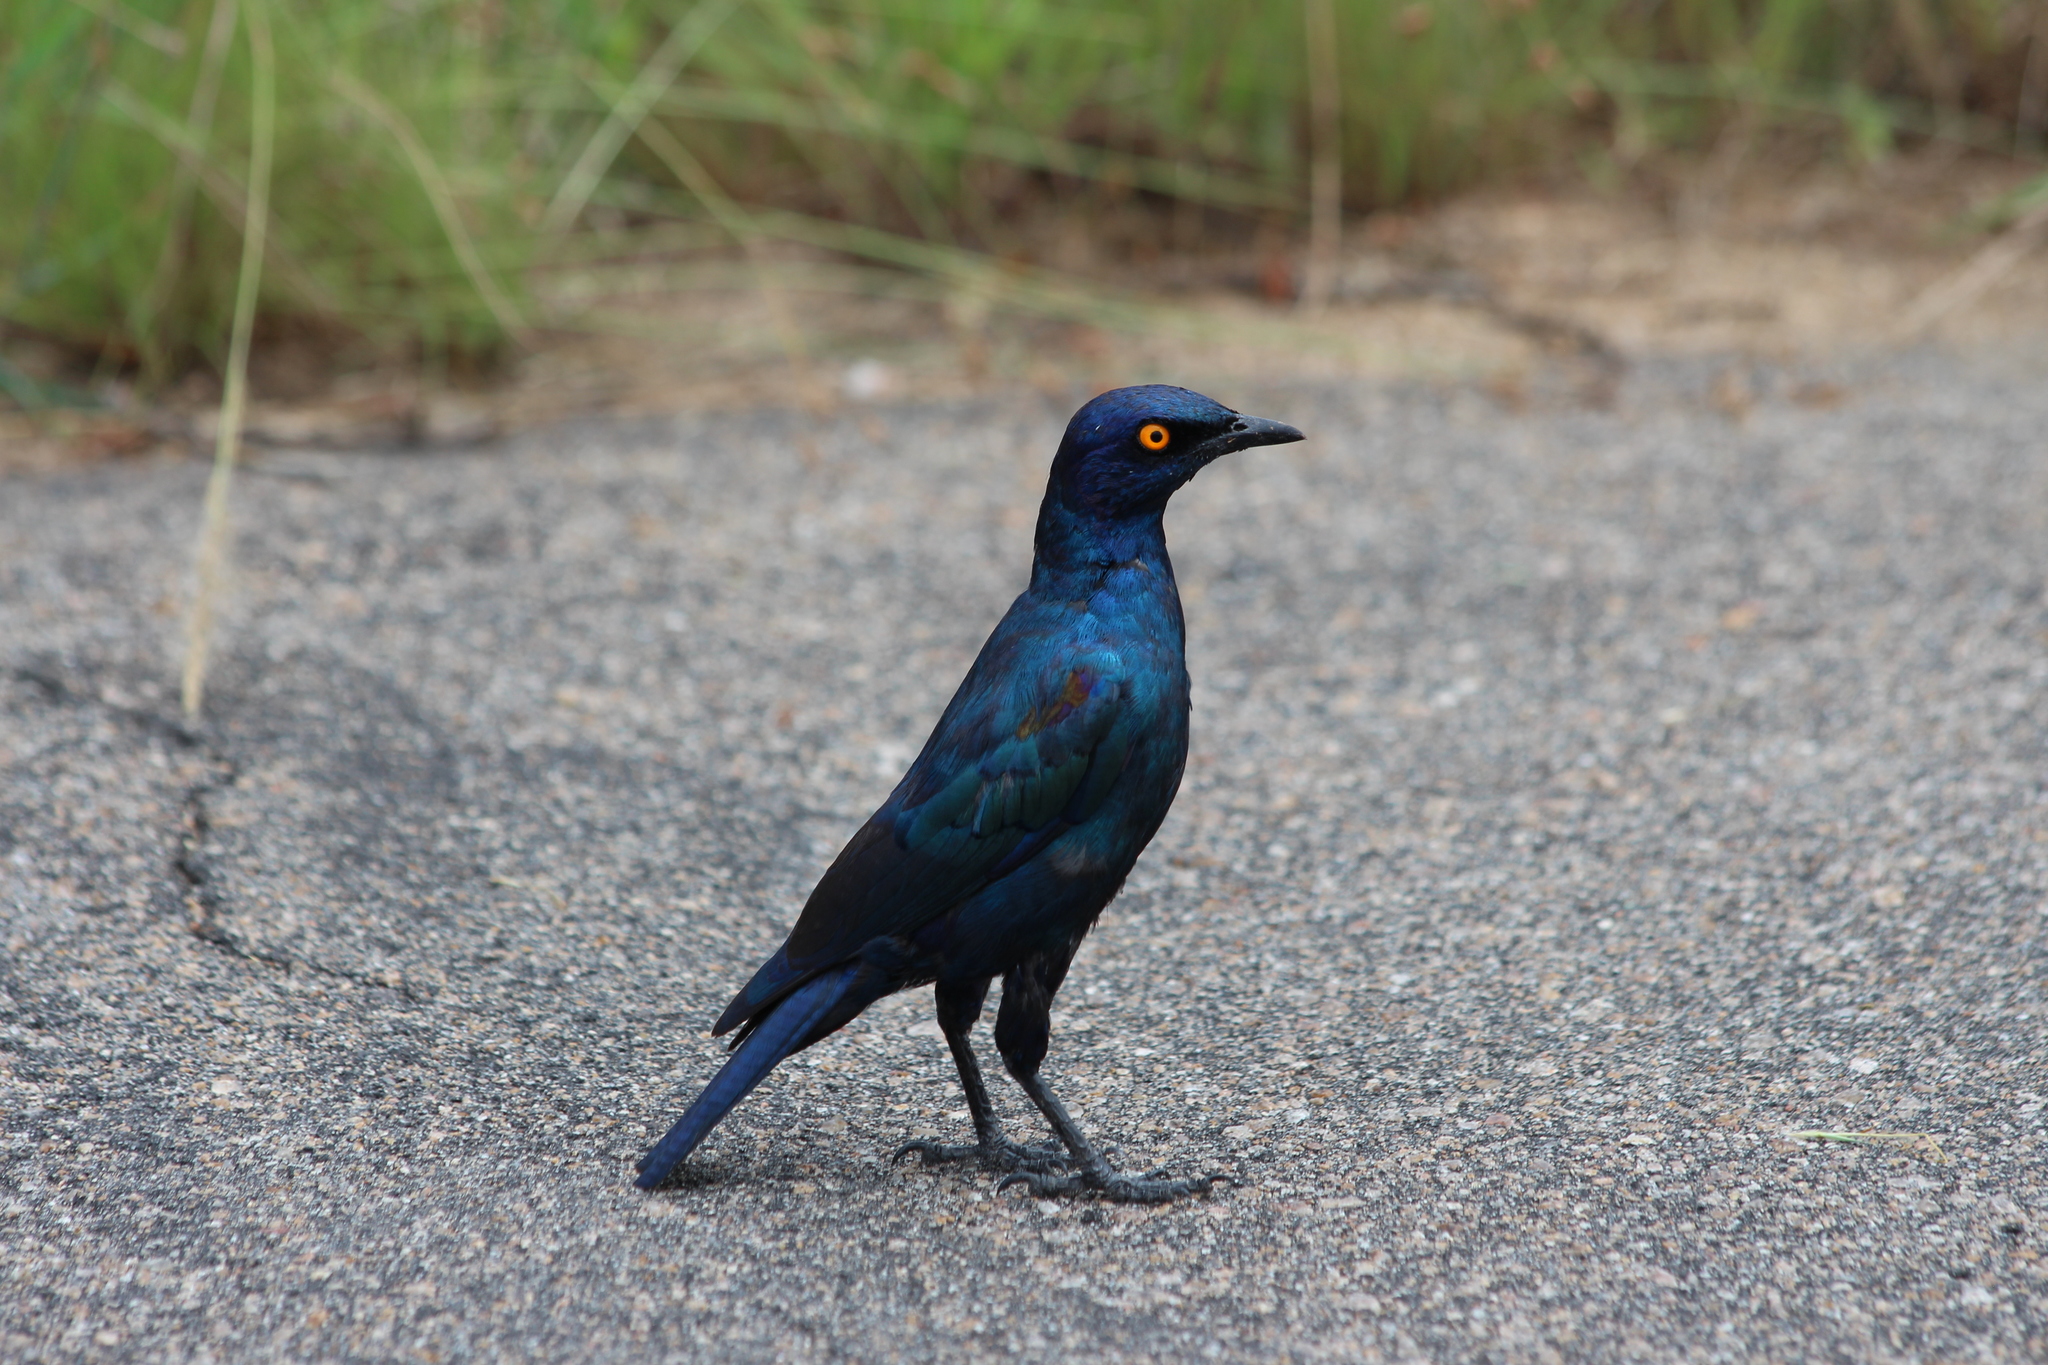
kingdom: Animalia
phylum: Chordata
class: Aves
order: Passeriformes
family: Sturnidae
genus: Lamprotornis
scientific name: Lamprotornis nitens
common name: Cape starling
